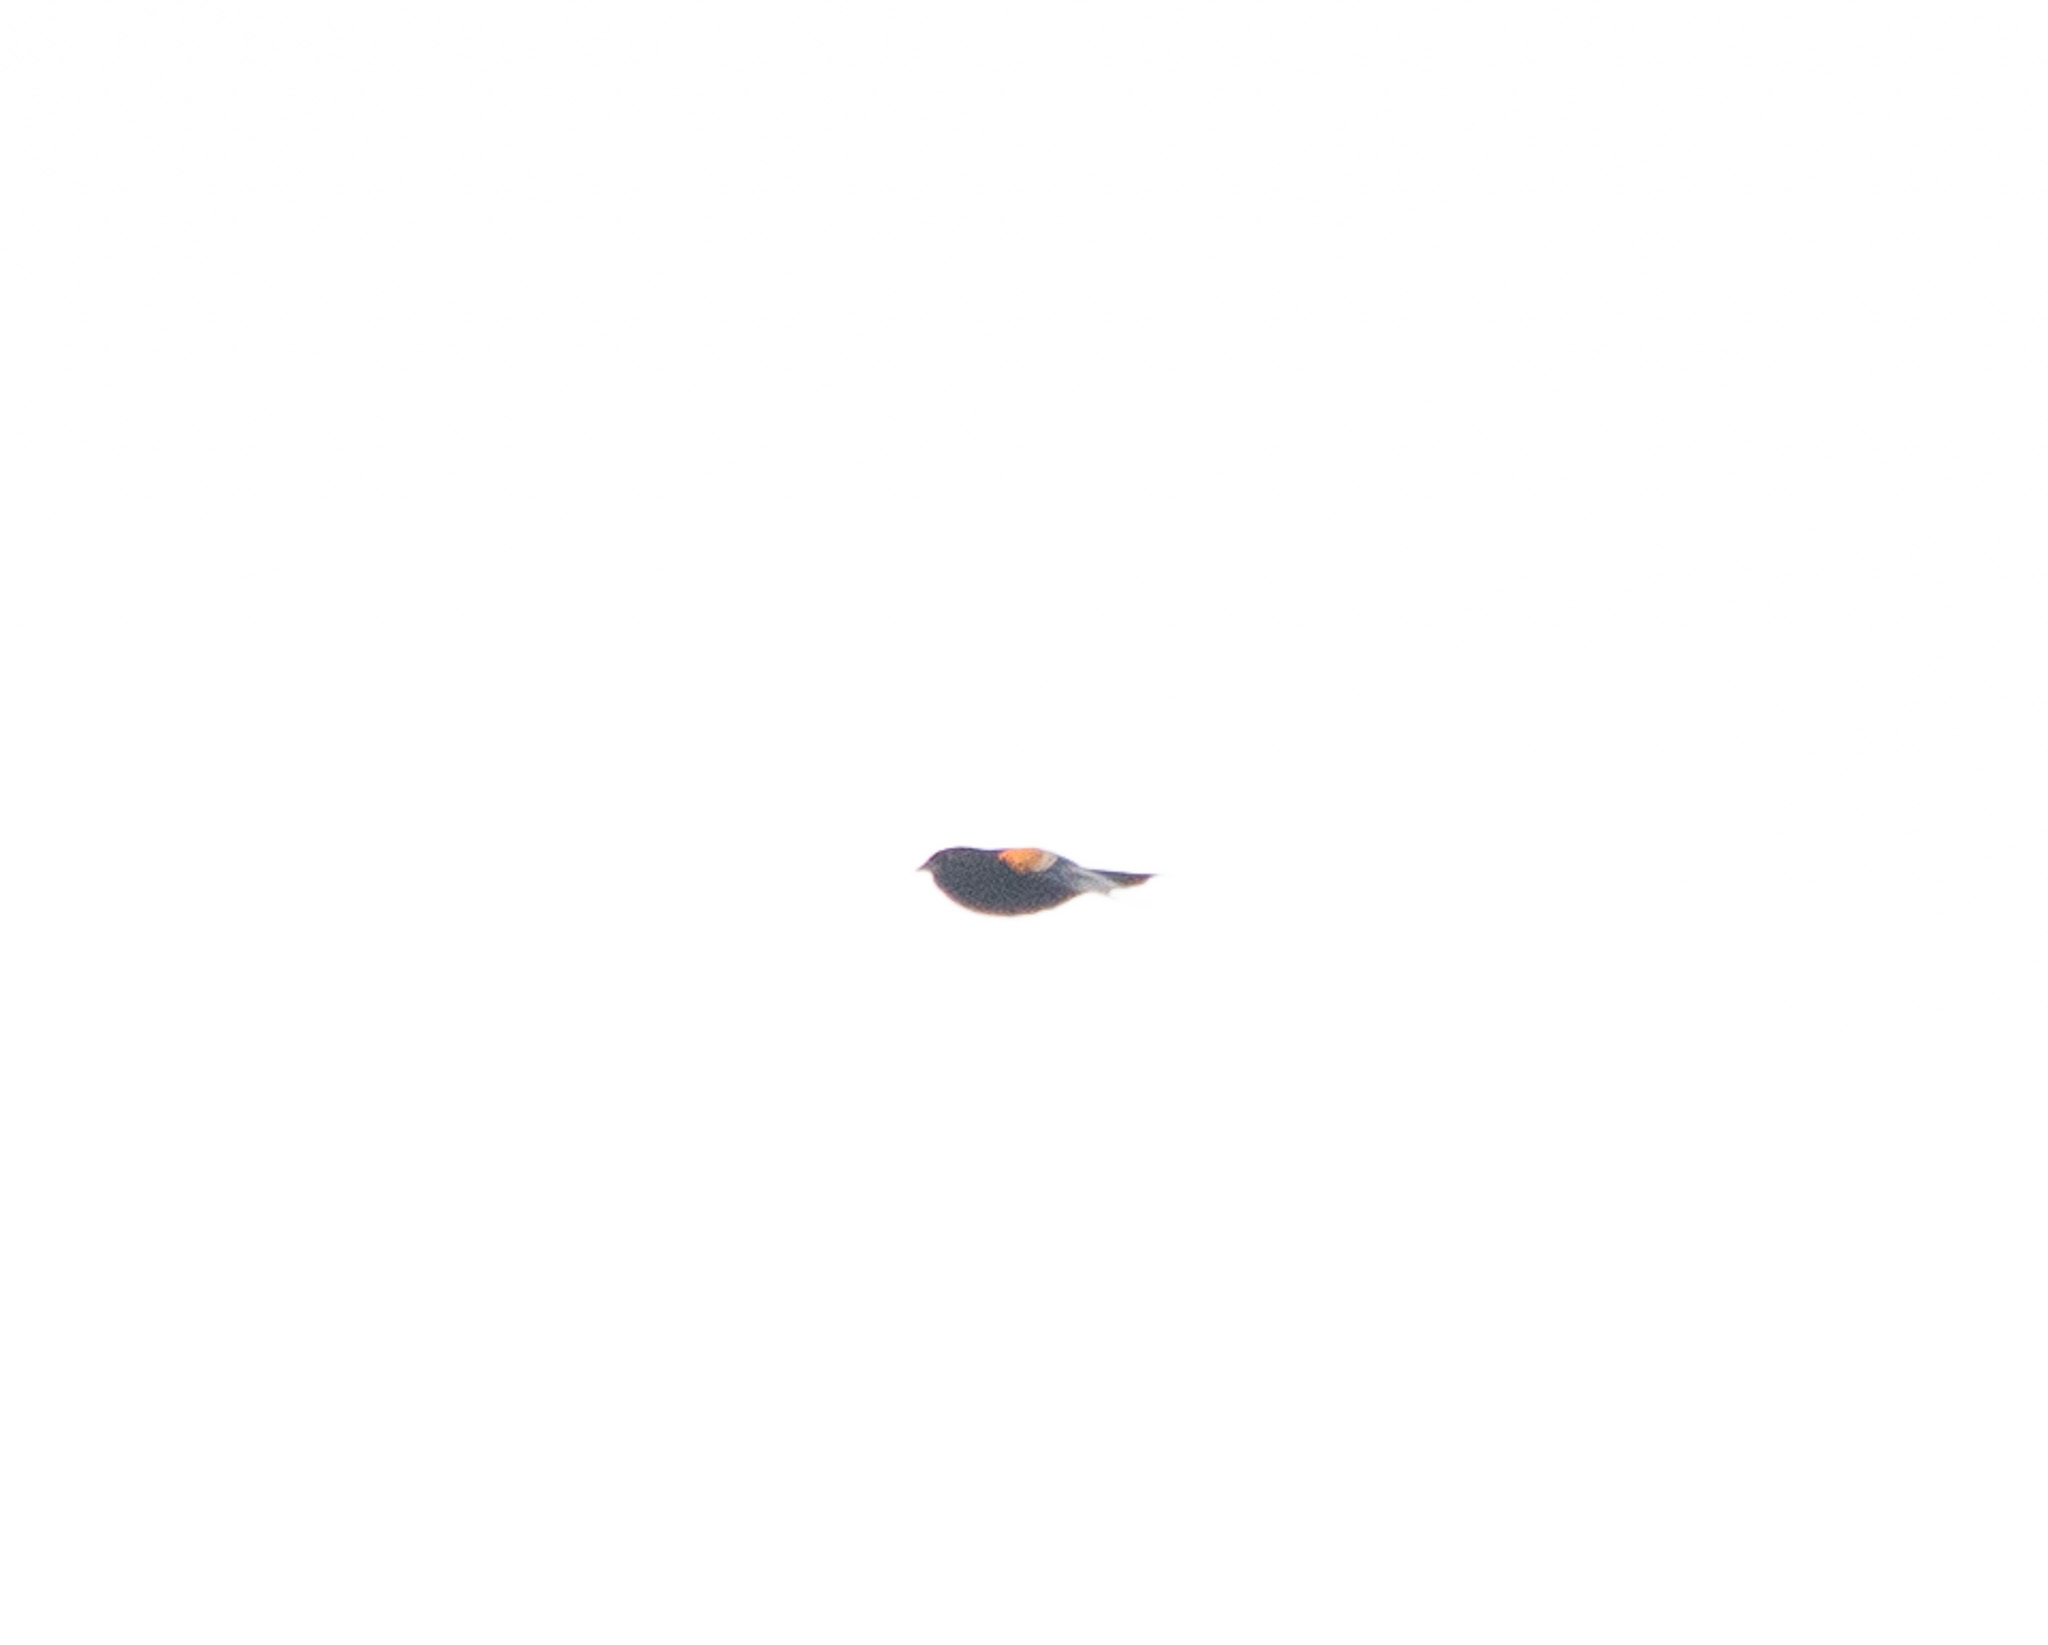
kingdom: Animalia
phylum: Chordata
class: Aves
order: Passeriformes
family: Icteridae
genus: Agelaius
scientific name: Agelaius phoeniceus
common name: Red-winged blackbird
